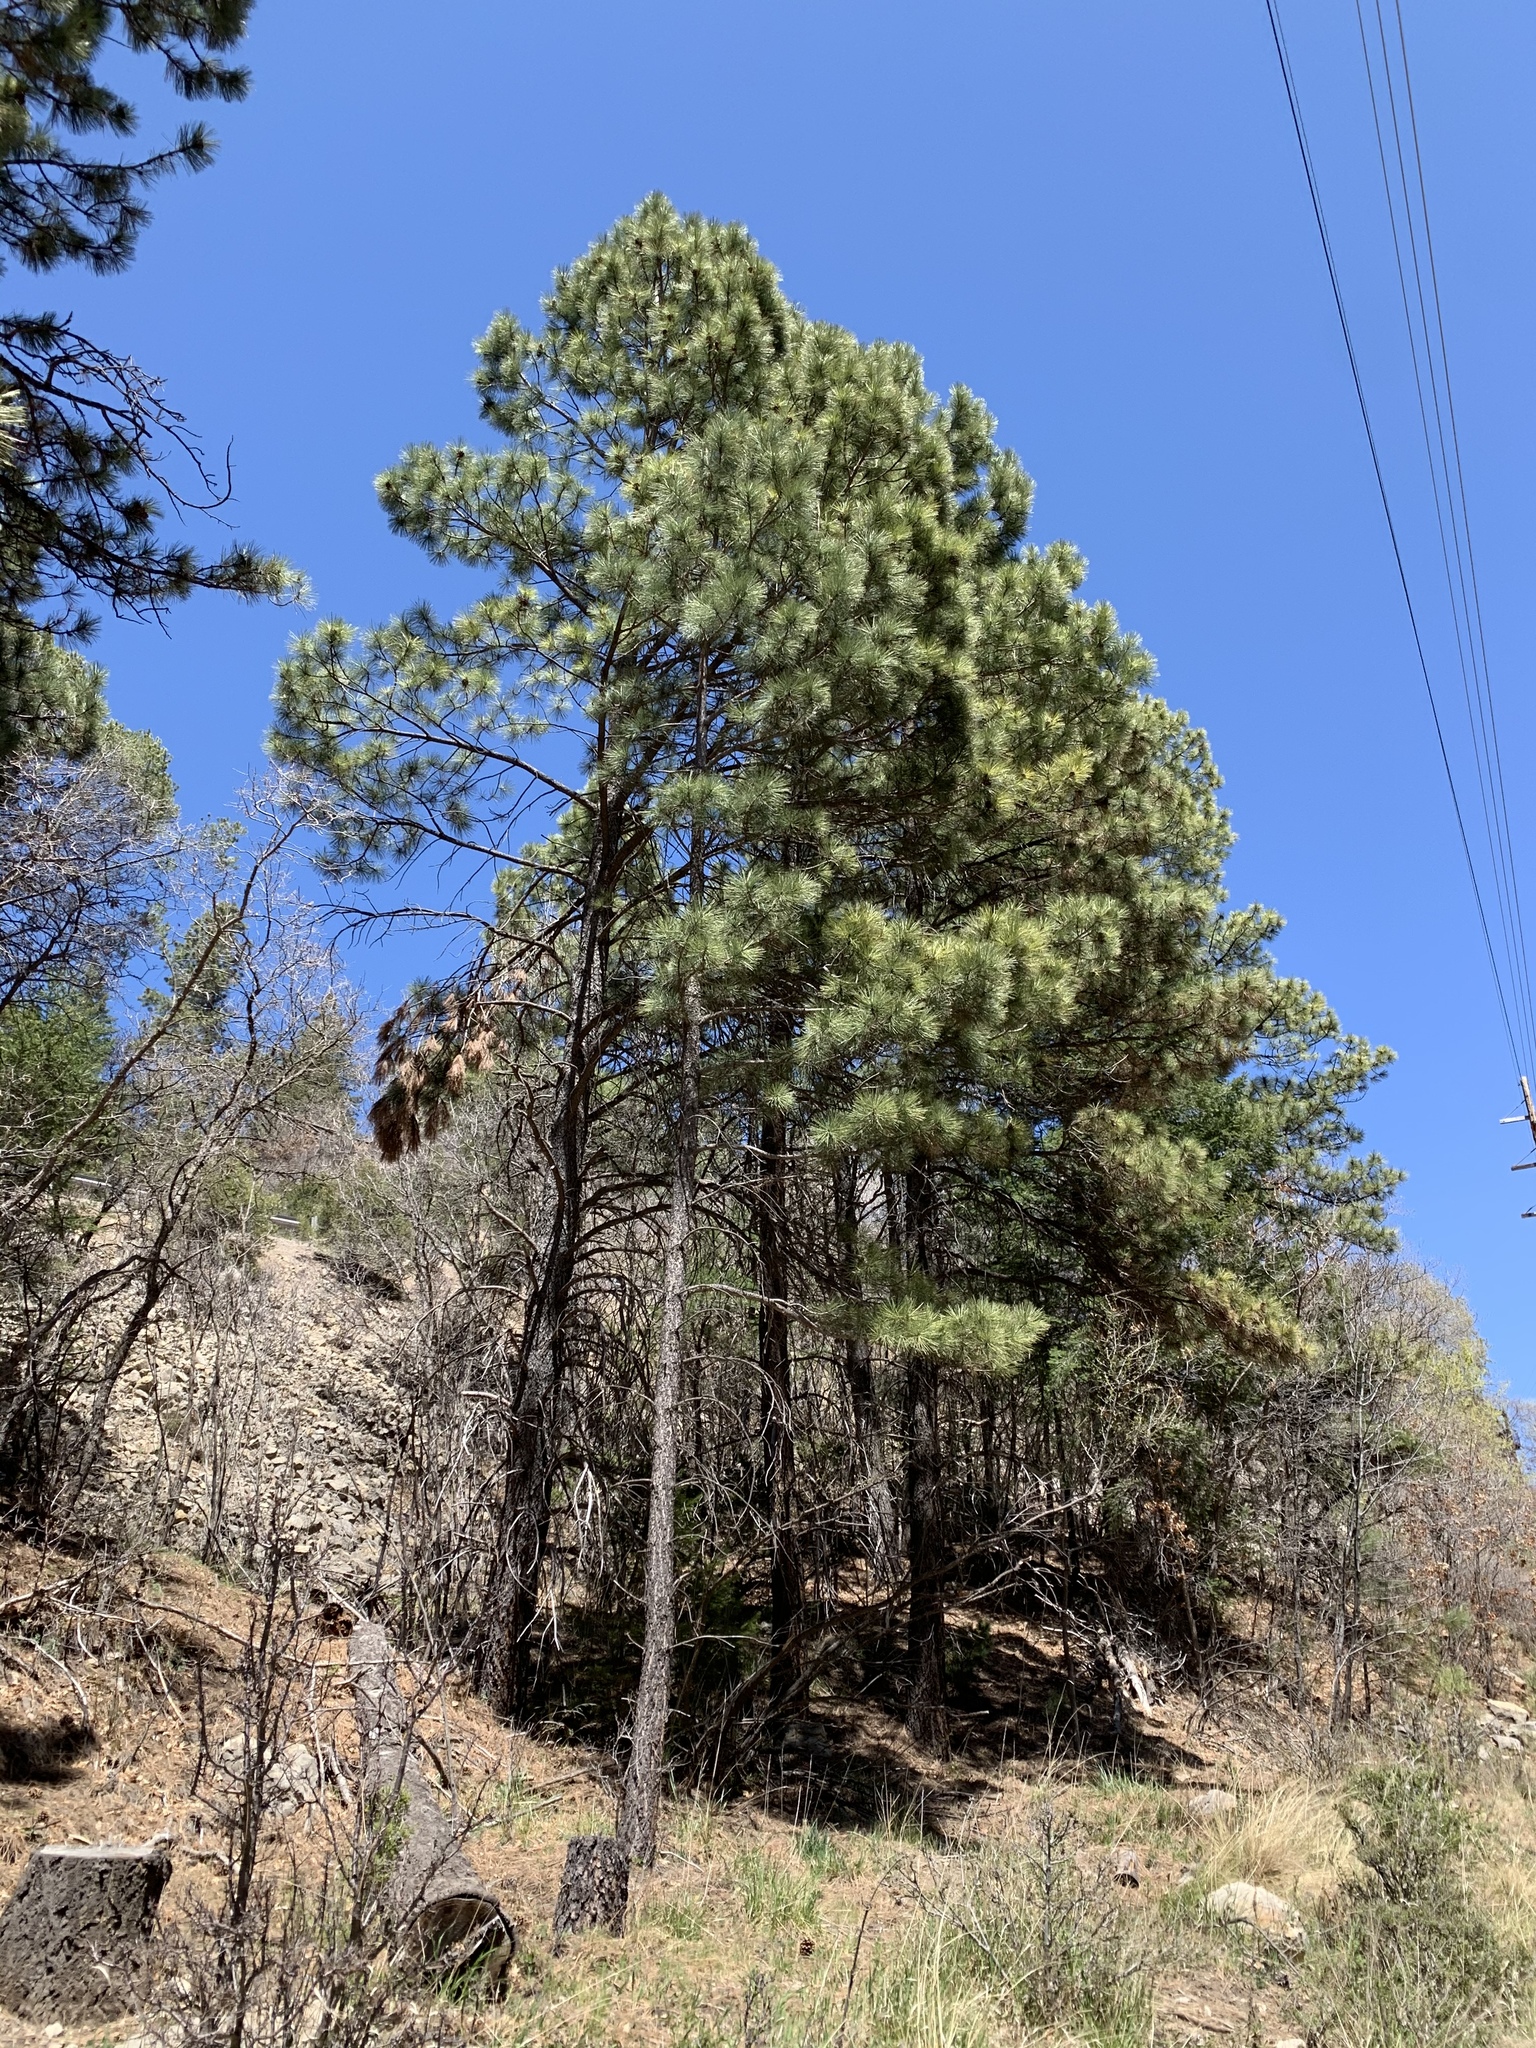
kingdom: Plantae
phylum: Tracheophyta
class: Pinopsida
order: Pinales
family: Pinaceae
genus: Pinus
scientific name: Pinus ponderosa
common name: Western yellow-pine
